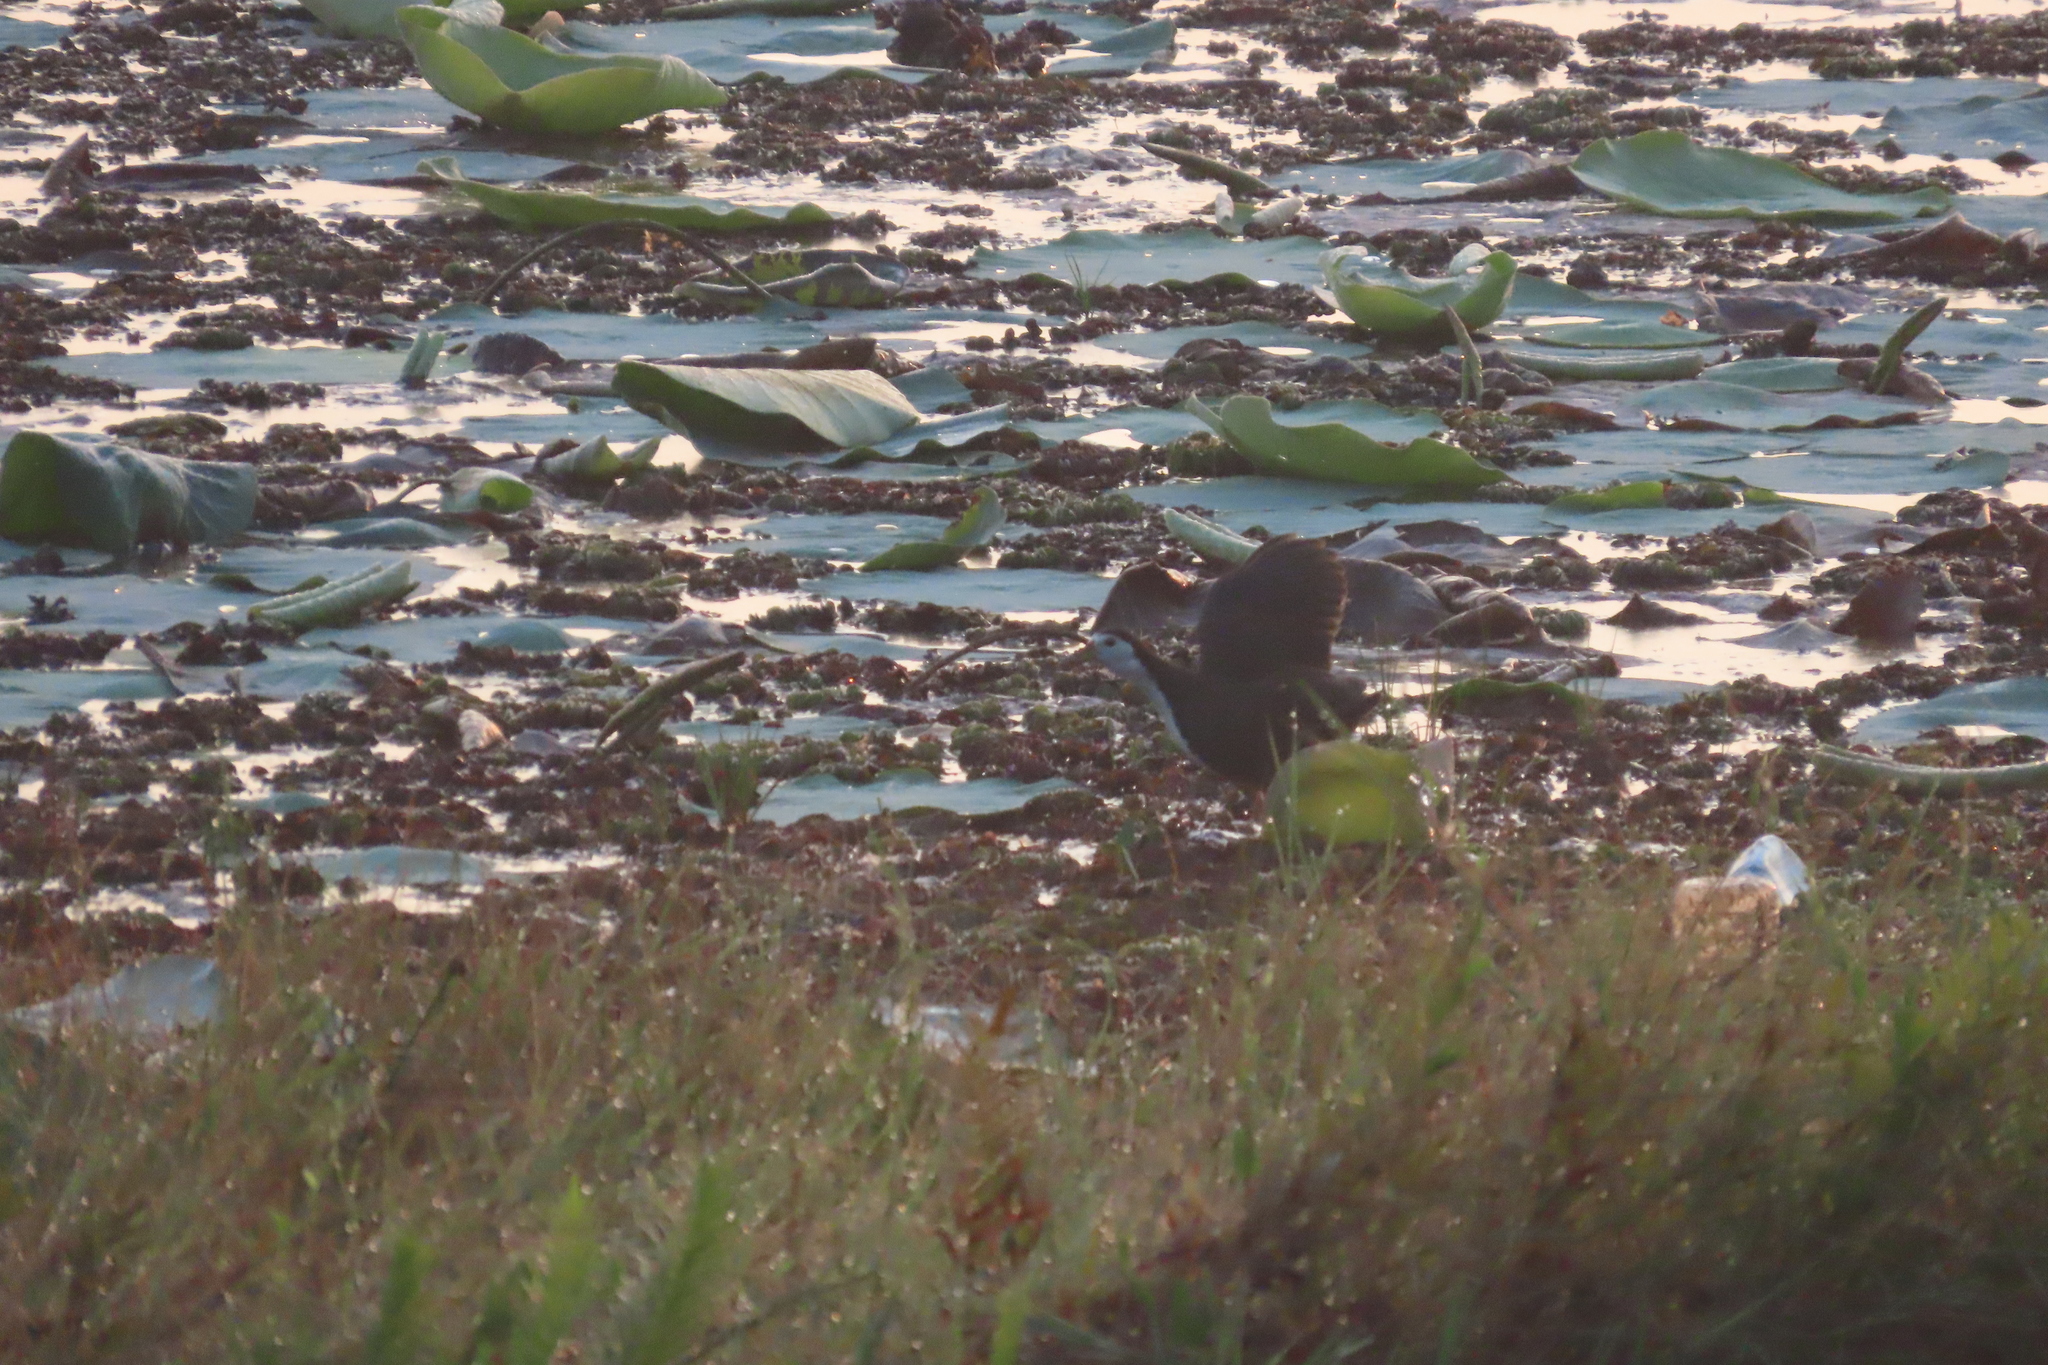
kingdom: Animalia
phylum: Chordata
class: Aves
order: Gruiformes
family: Rallidae
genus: Amaurornis
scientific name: Amaurornis phoenicurus
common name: White-breasted waterhen
